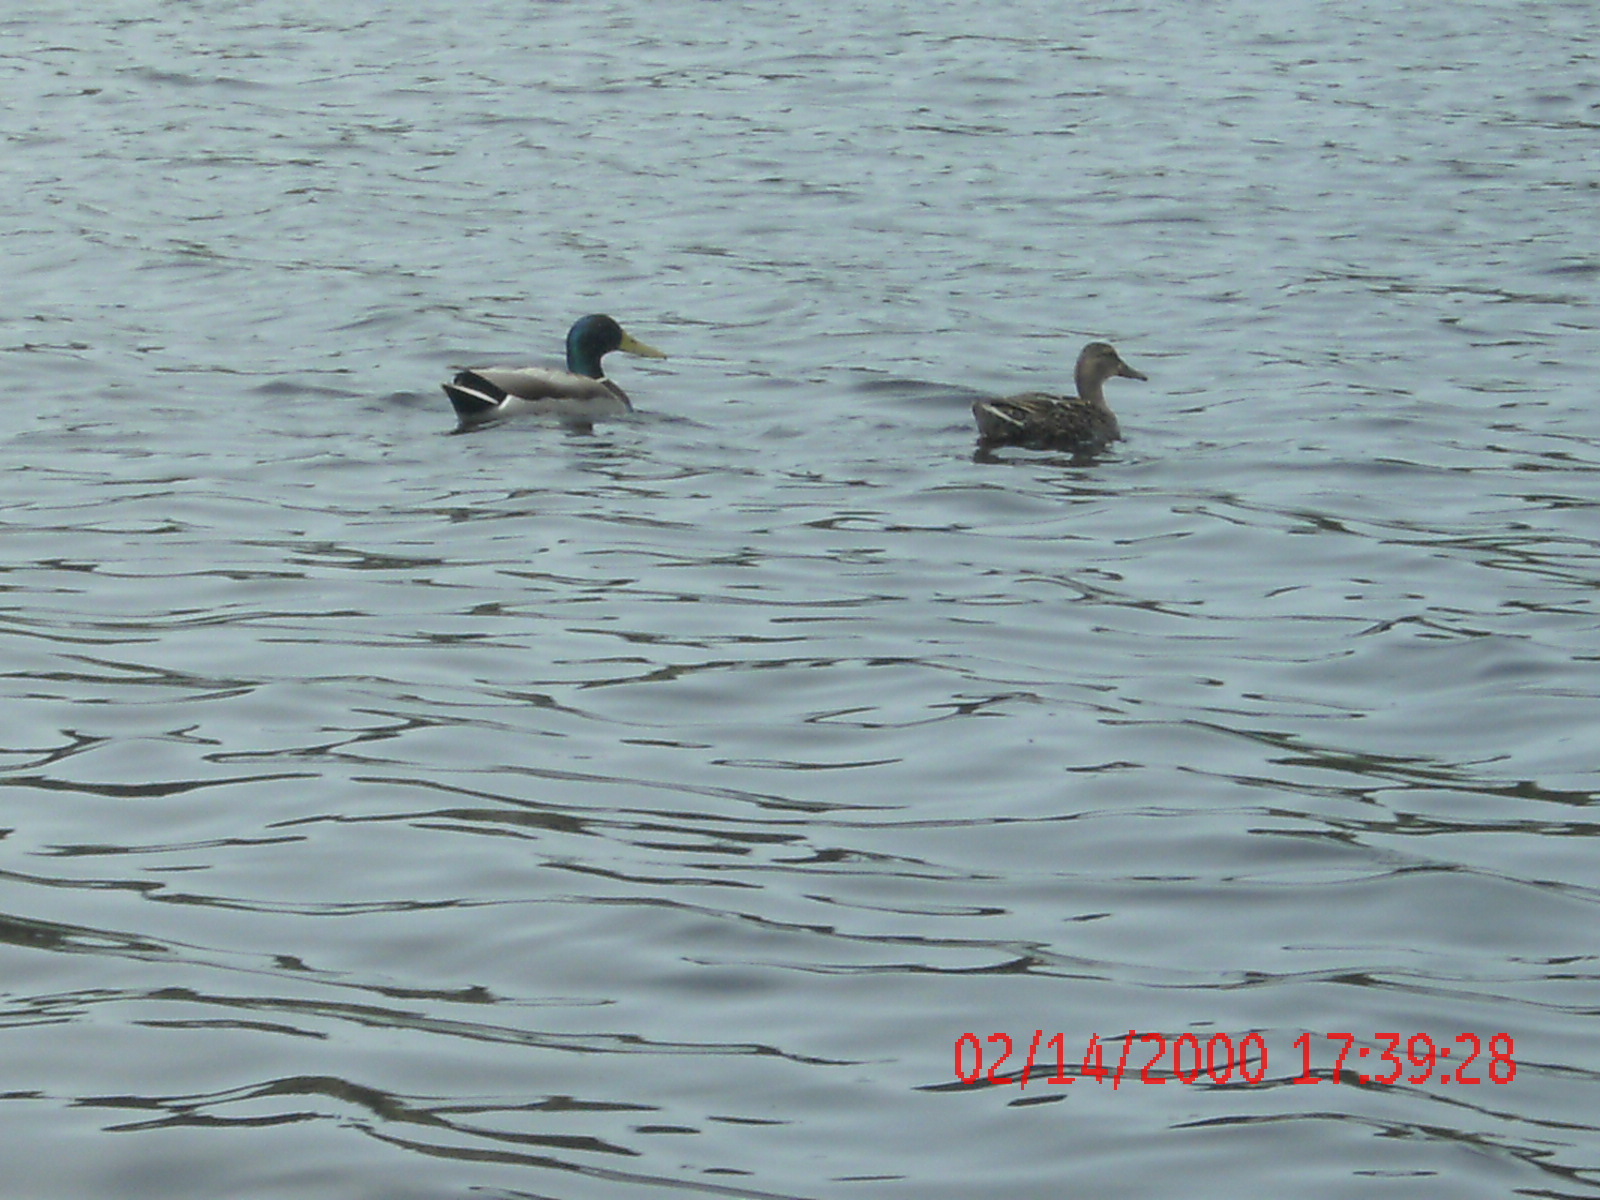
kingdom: Animalia
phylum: Chordata
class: Aves
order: Anseriformes
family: Anatidae
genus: Anas
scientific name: Anas platyrhynchos
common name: Mallard
